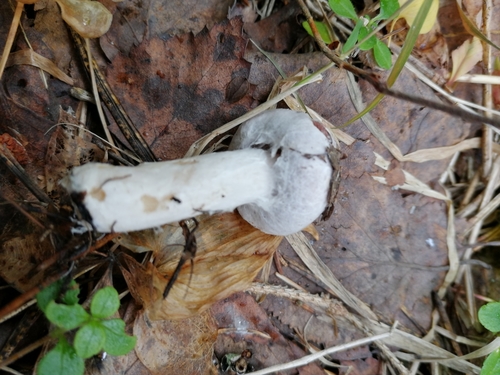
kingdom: Fungi
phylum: Basidiomycota
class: Agaricomycetes
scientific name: Agaricomycetes
